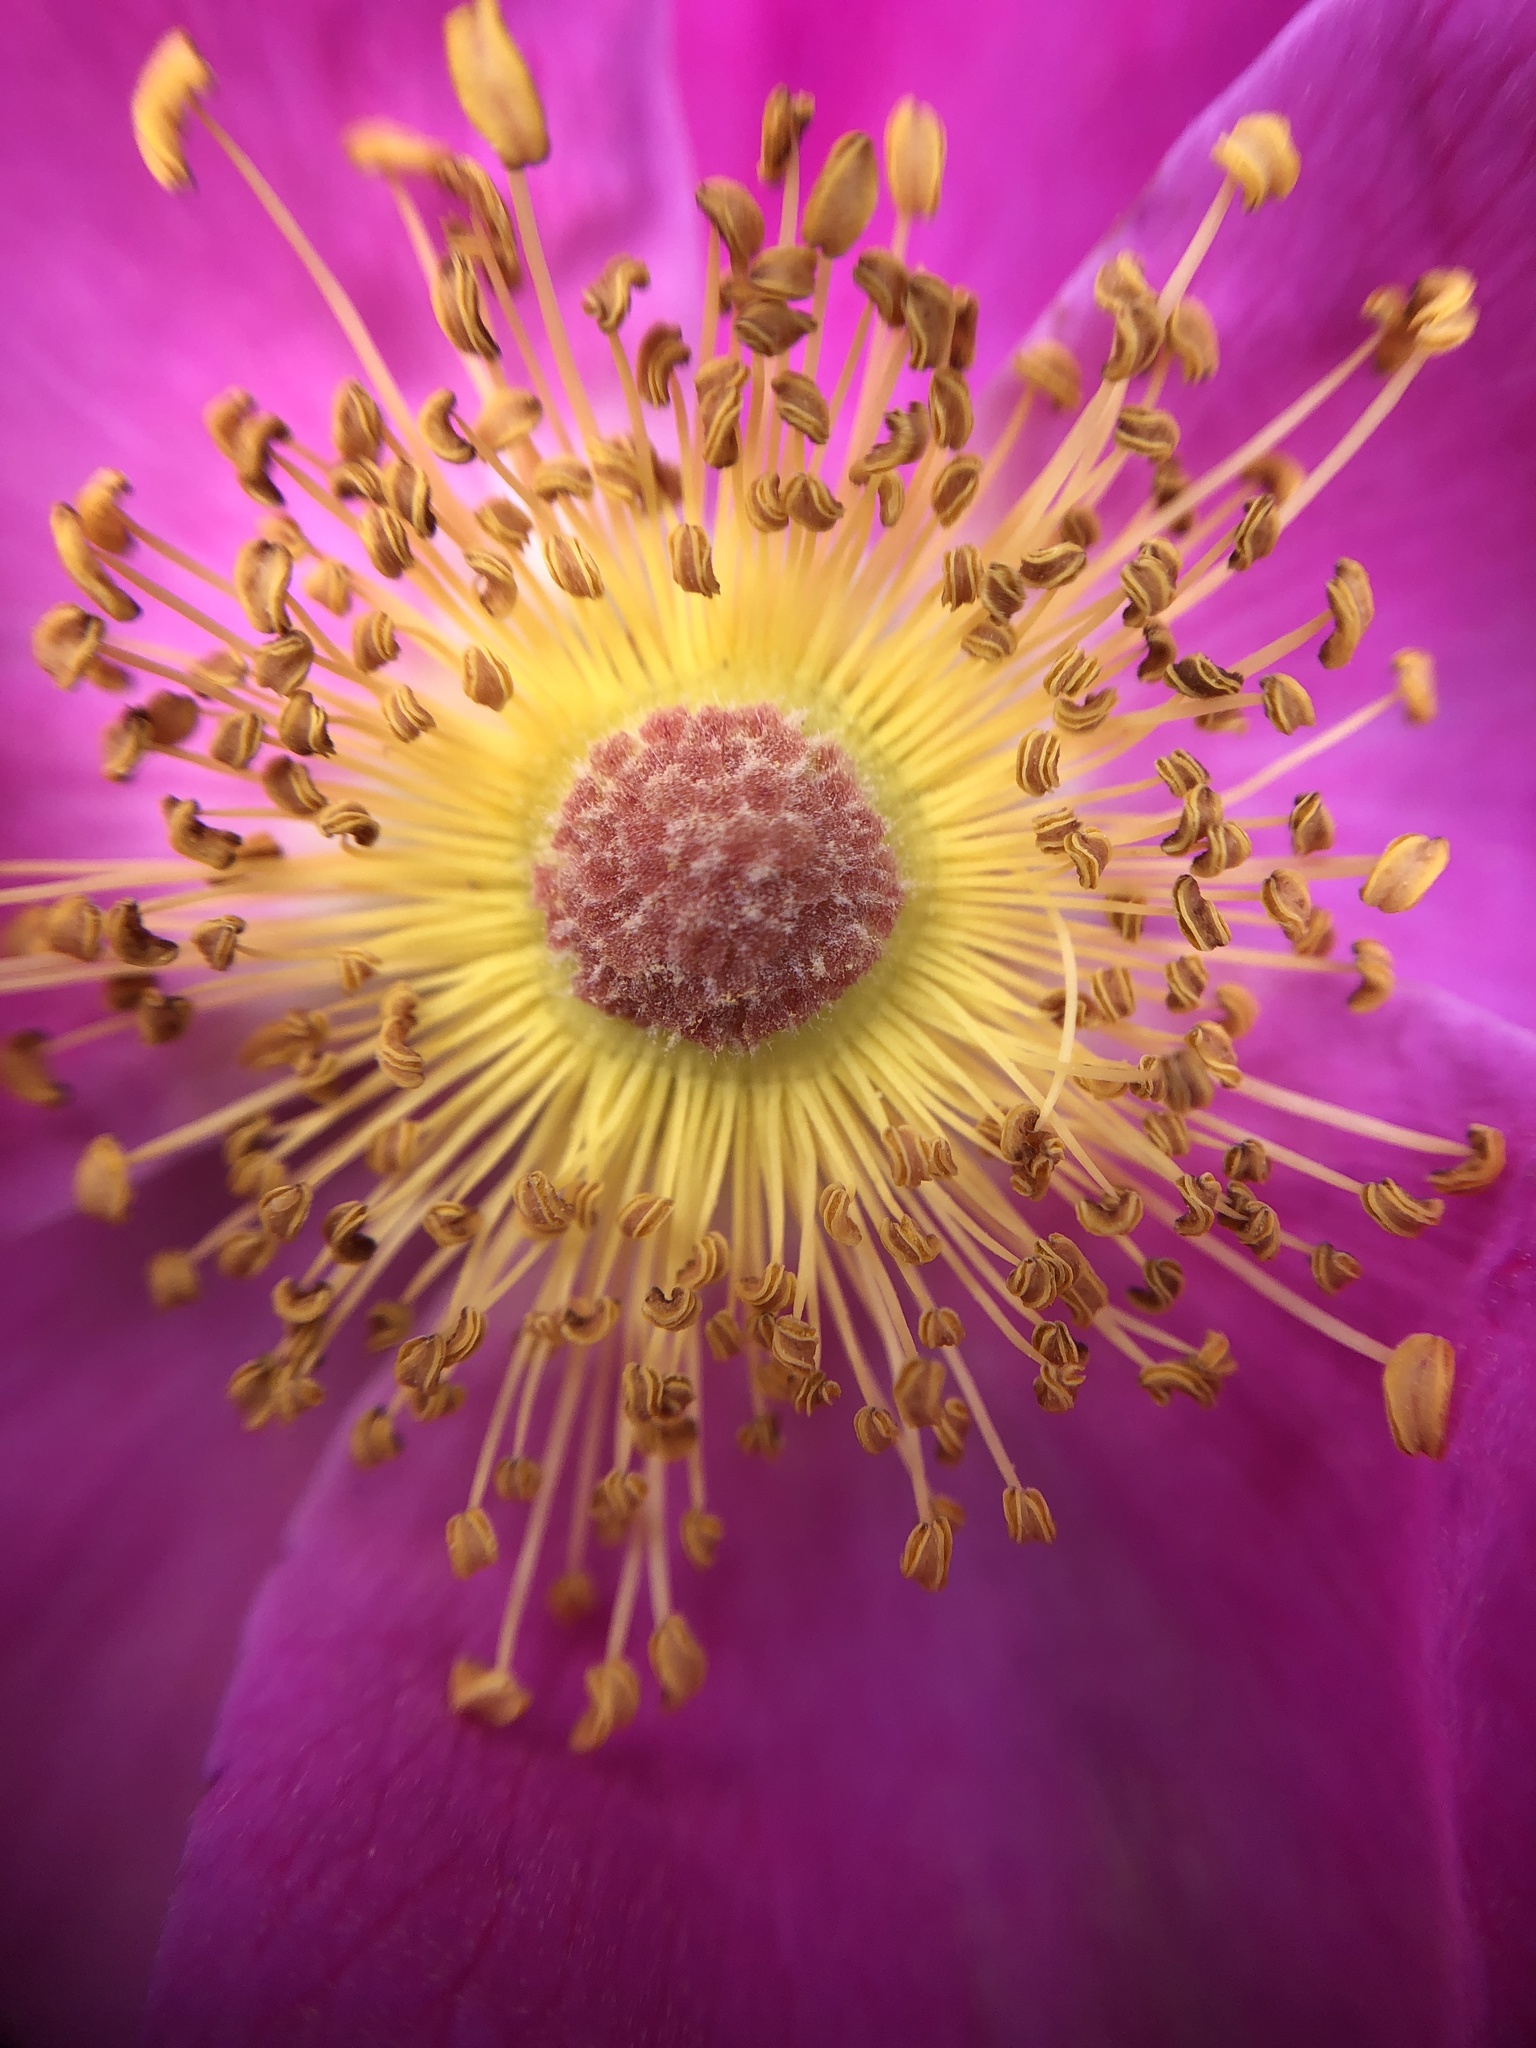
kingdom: Plantae
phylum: Tracheophyta
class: Magnoliopsida
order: Rosales
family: Rosaceae
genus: Rosa
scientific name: Rosa
